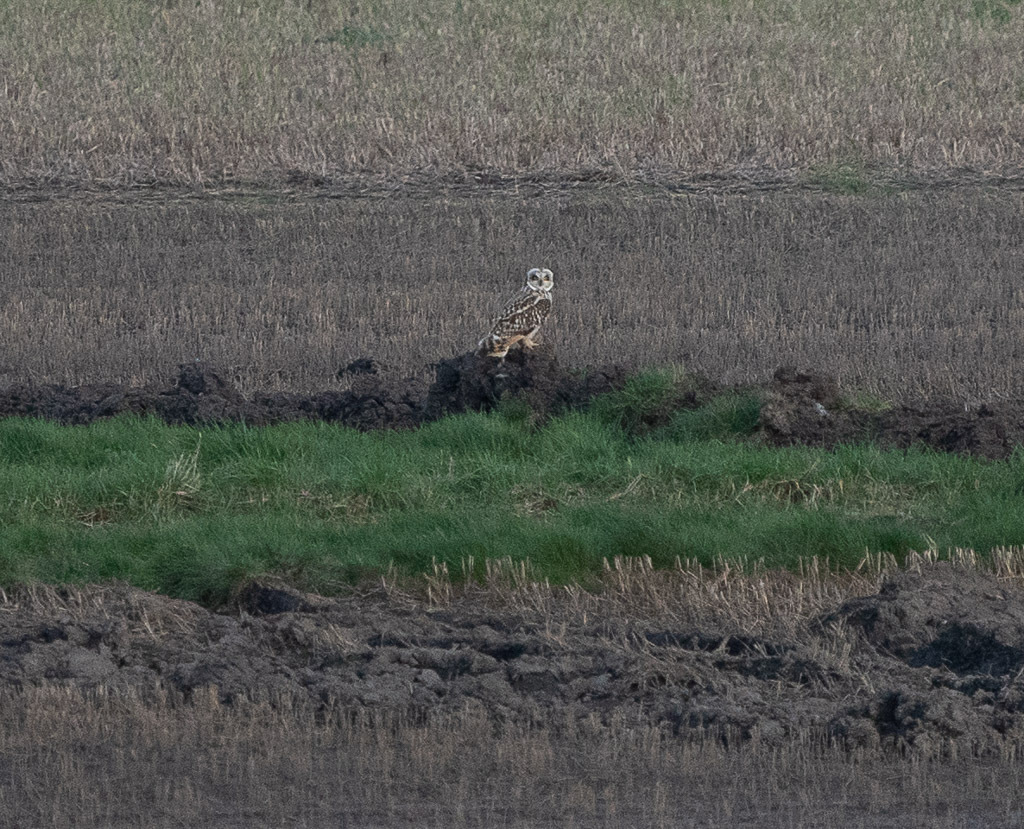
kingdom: Animalia
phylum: Chordata
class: Aves
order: Strigiformes
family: Strigidae
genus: Asio
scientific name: Asio flammeus
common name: Short-eared owl
